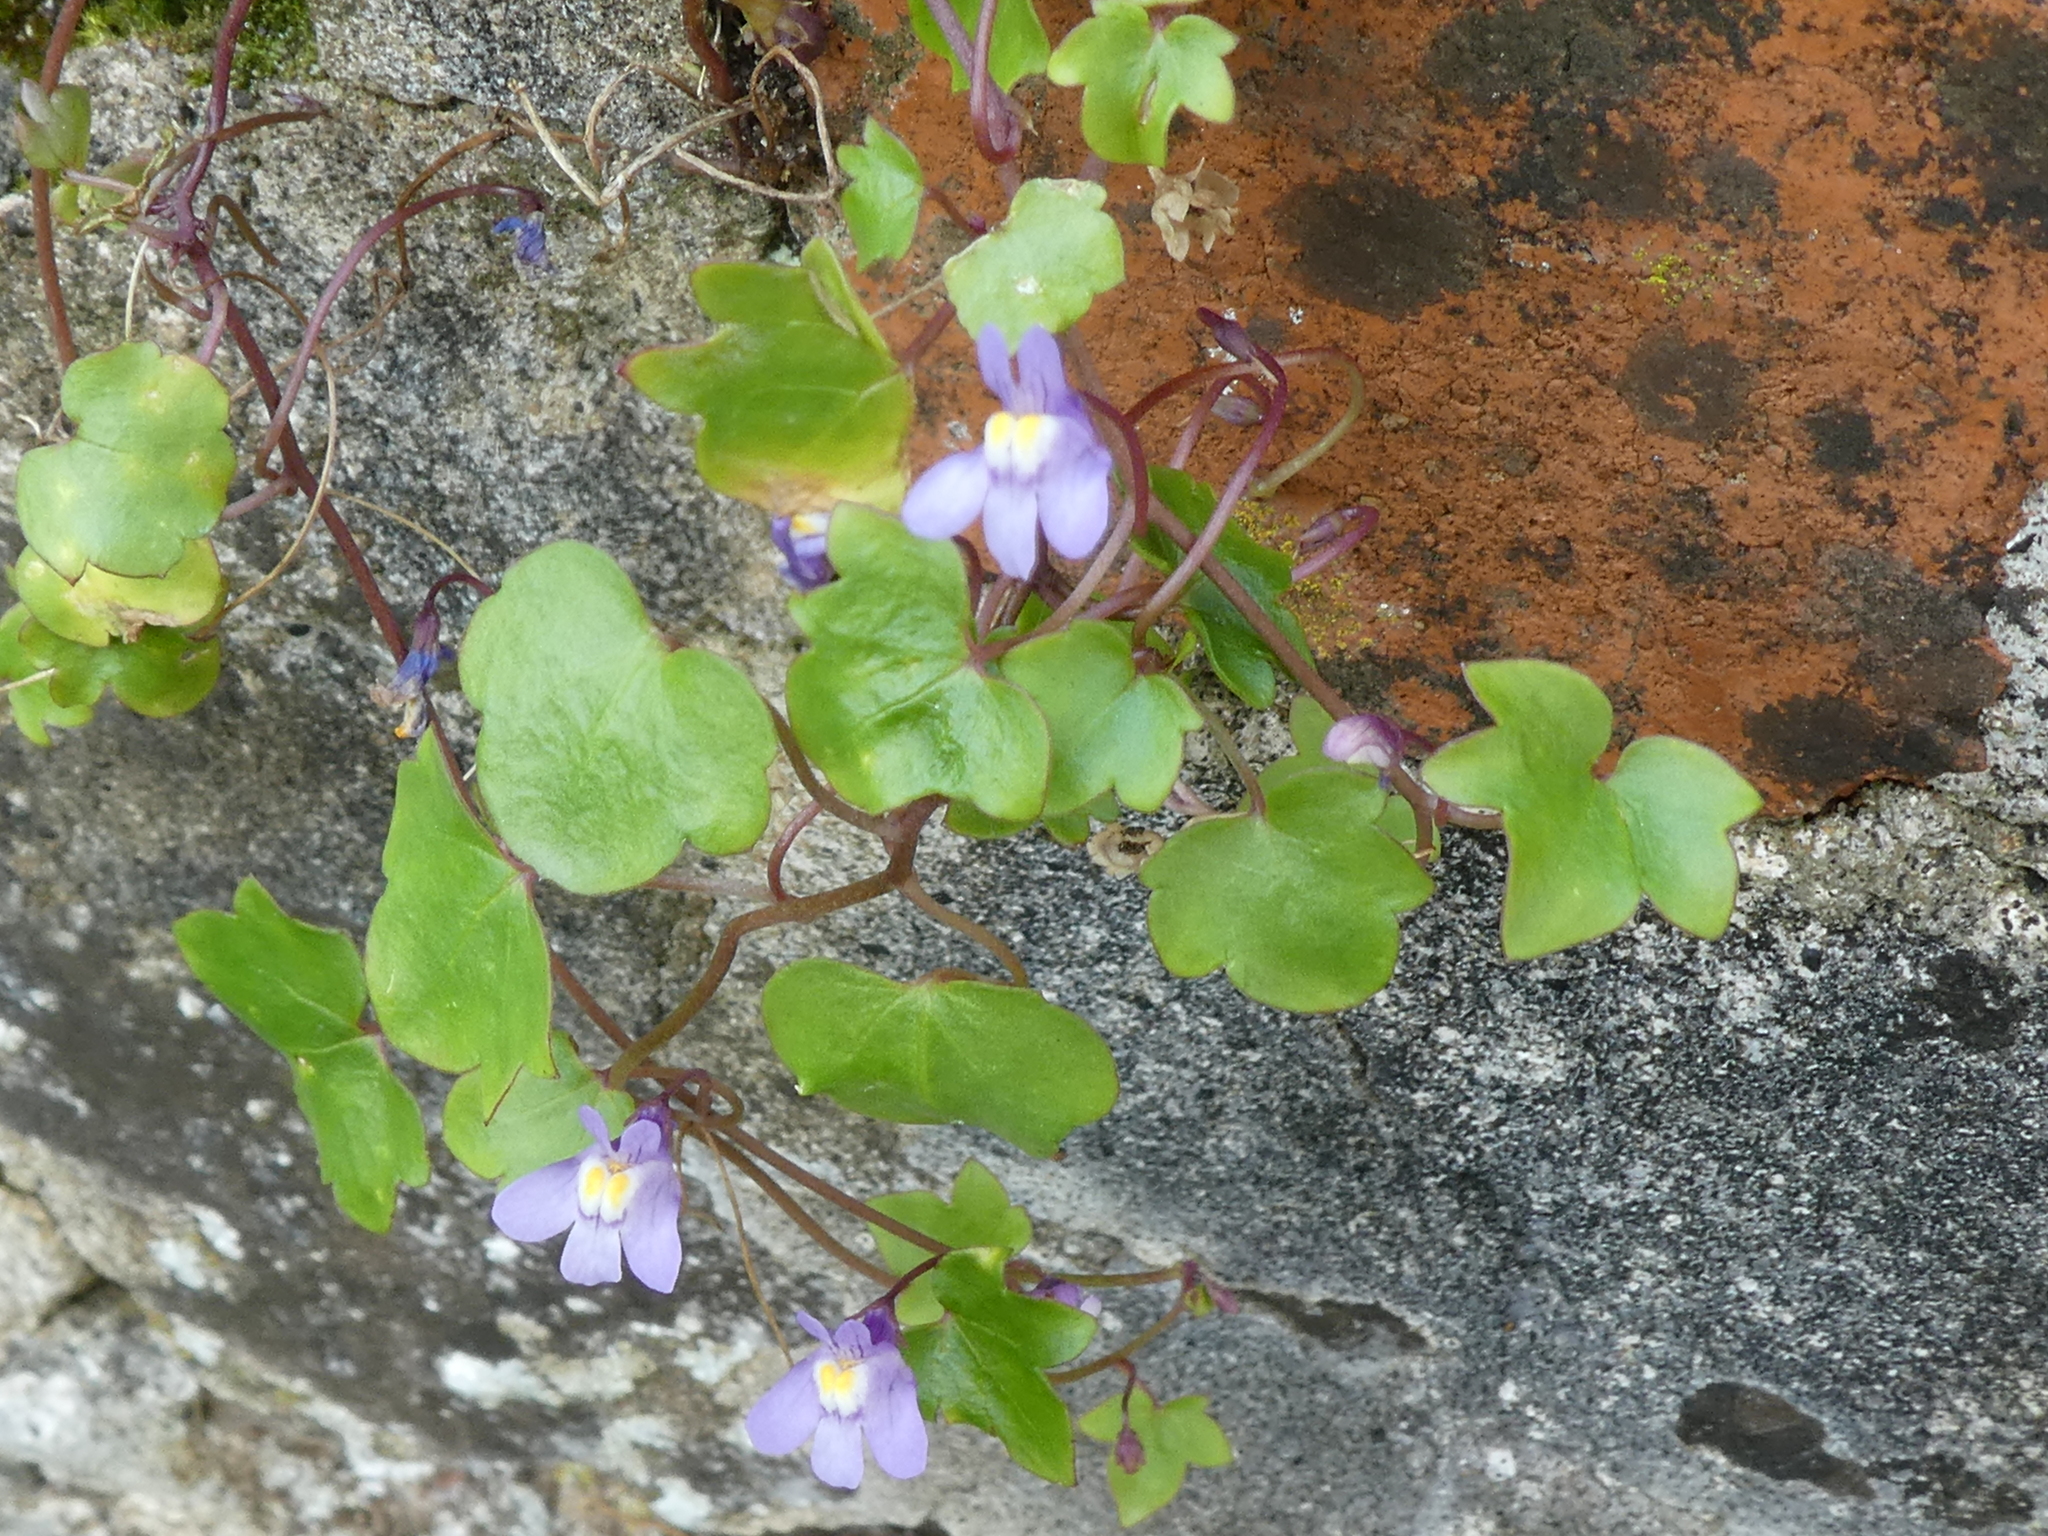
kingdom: Plantae
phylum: Tracheophyta
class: Magnoliopsida
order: Lamiales
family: Plantaginaceae
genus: Cymbalaria
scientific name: Cymbalaria muralis
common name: Ivy-leaved toadflax
